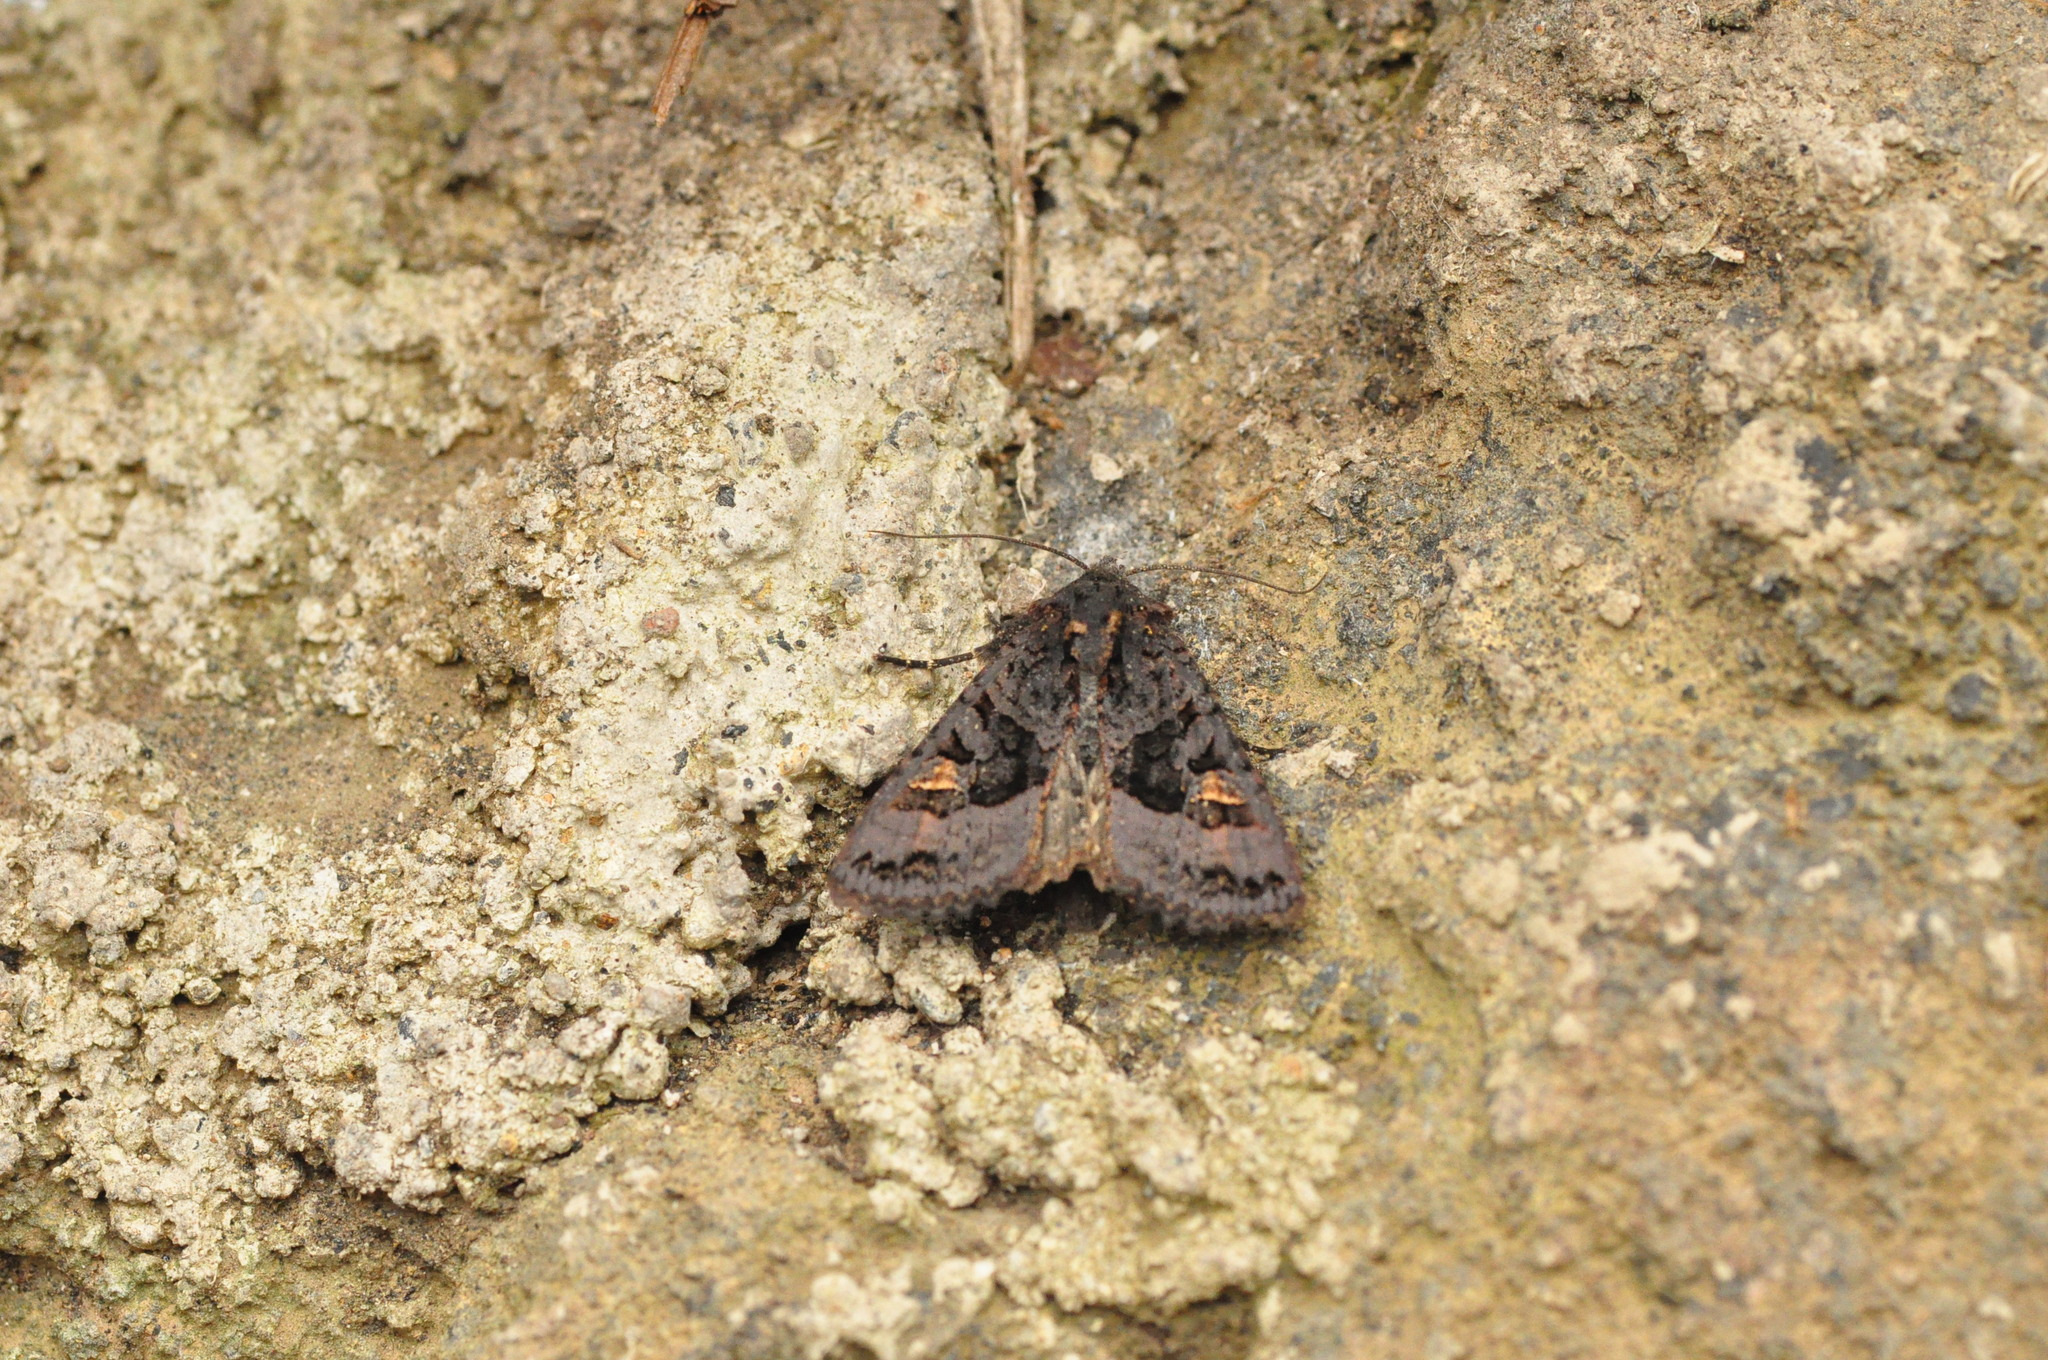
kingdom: Animalia
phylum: Arthropoda
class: Insecta
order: Lepidoptera
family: Noctuidae
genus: Euplexia
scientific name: Euplexia euplexina
